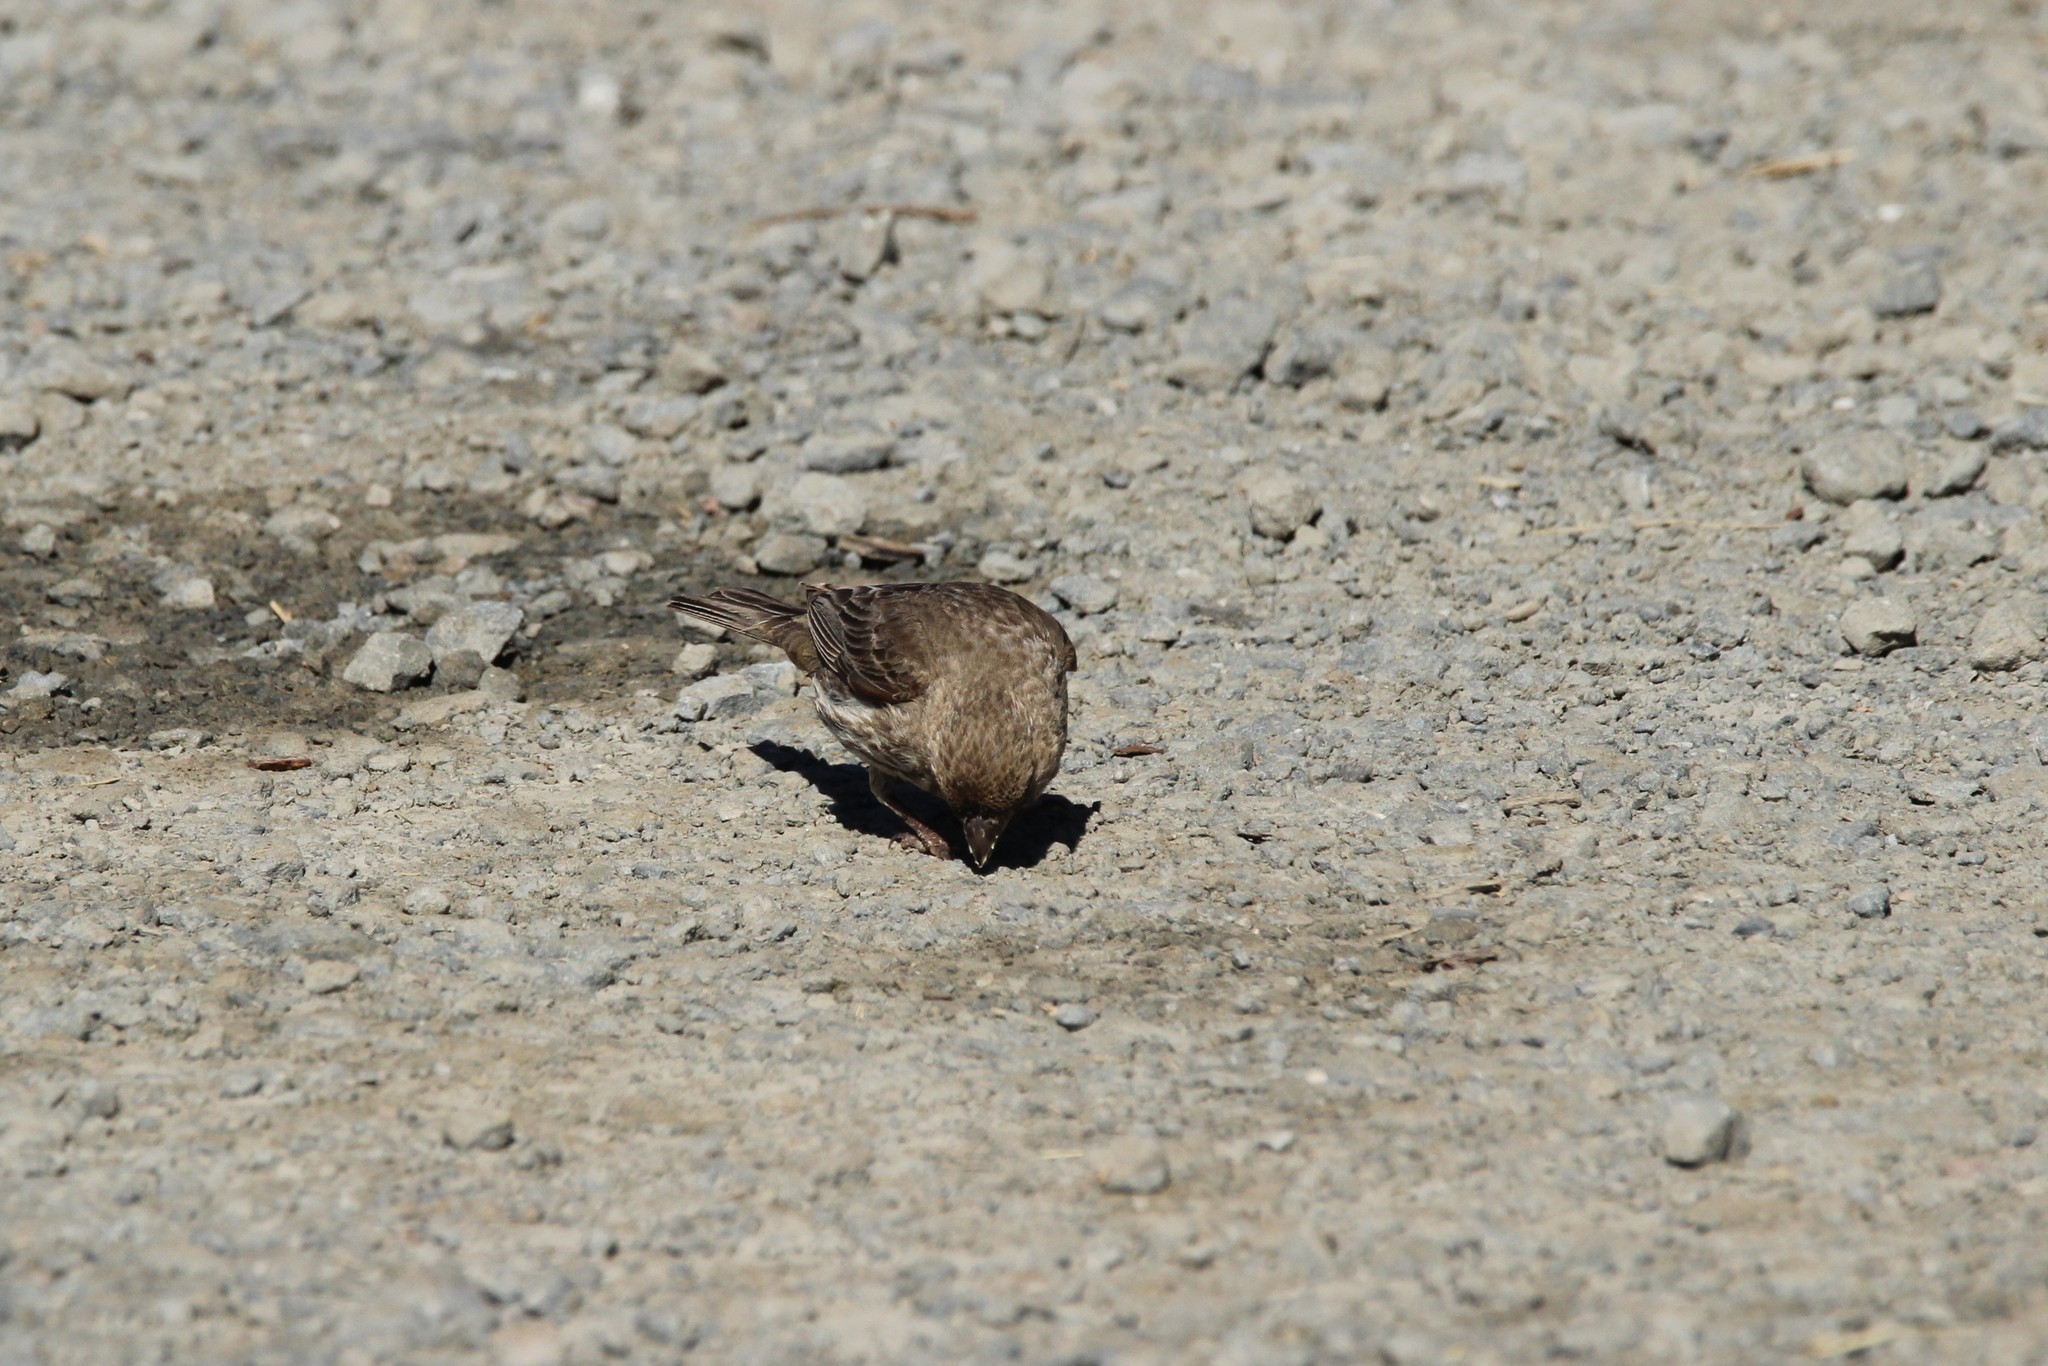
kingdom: Animalia
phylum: Chordata
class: Aves
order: Passeriformes
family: Fringillidae
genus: Haemorhous
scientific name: Haemorhous purpureus
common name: Purple finch
